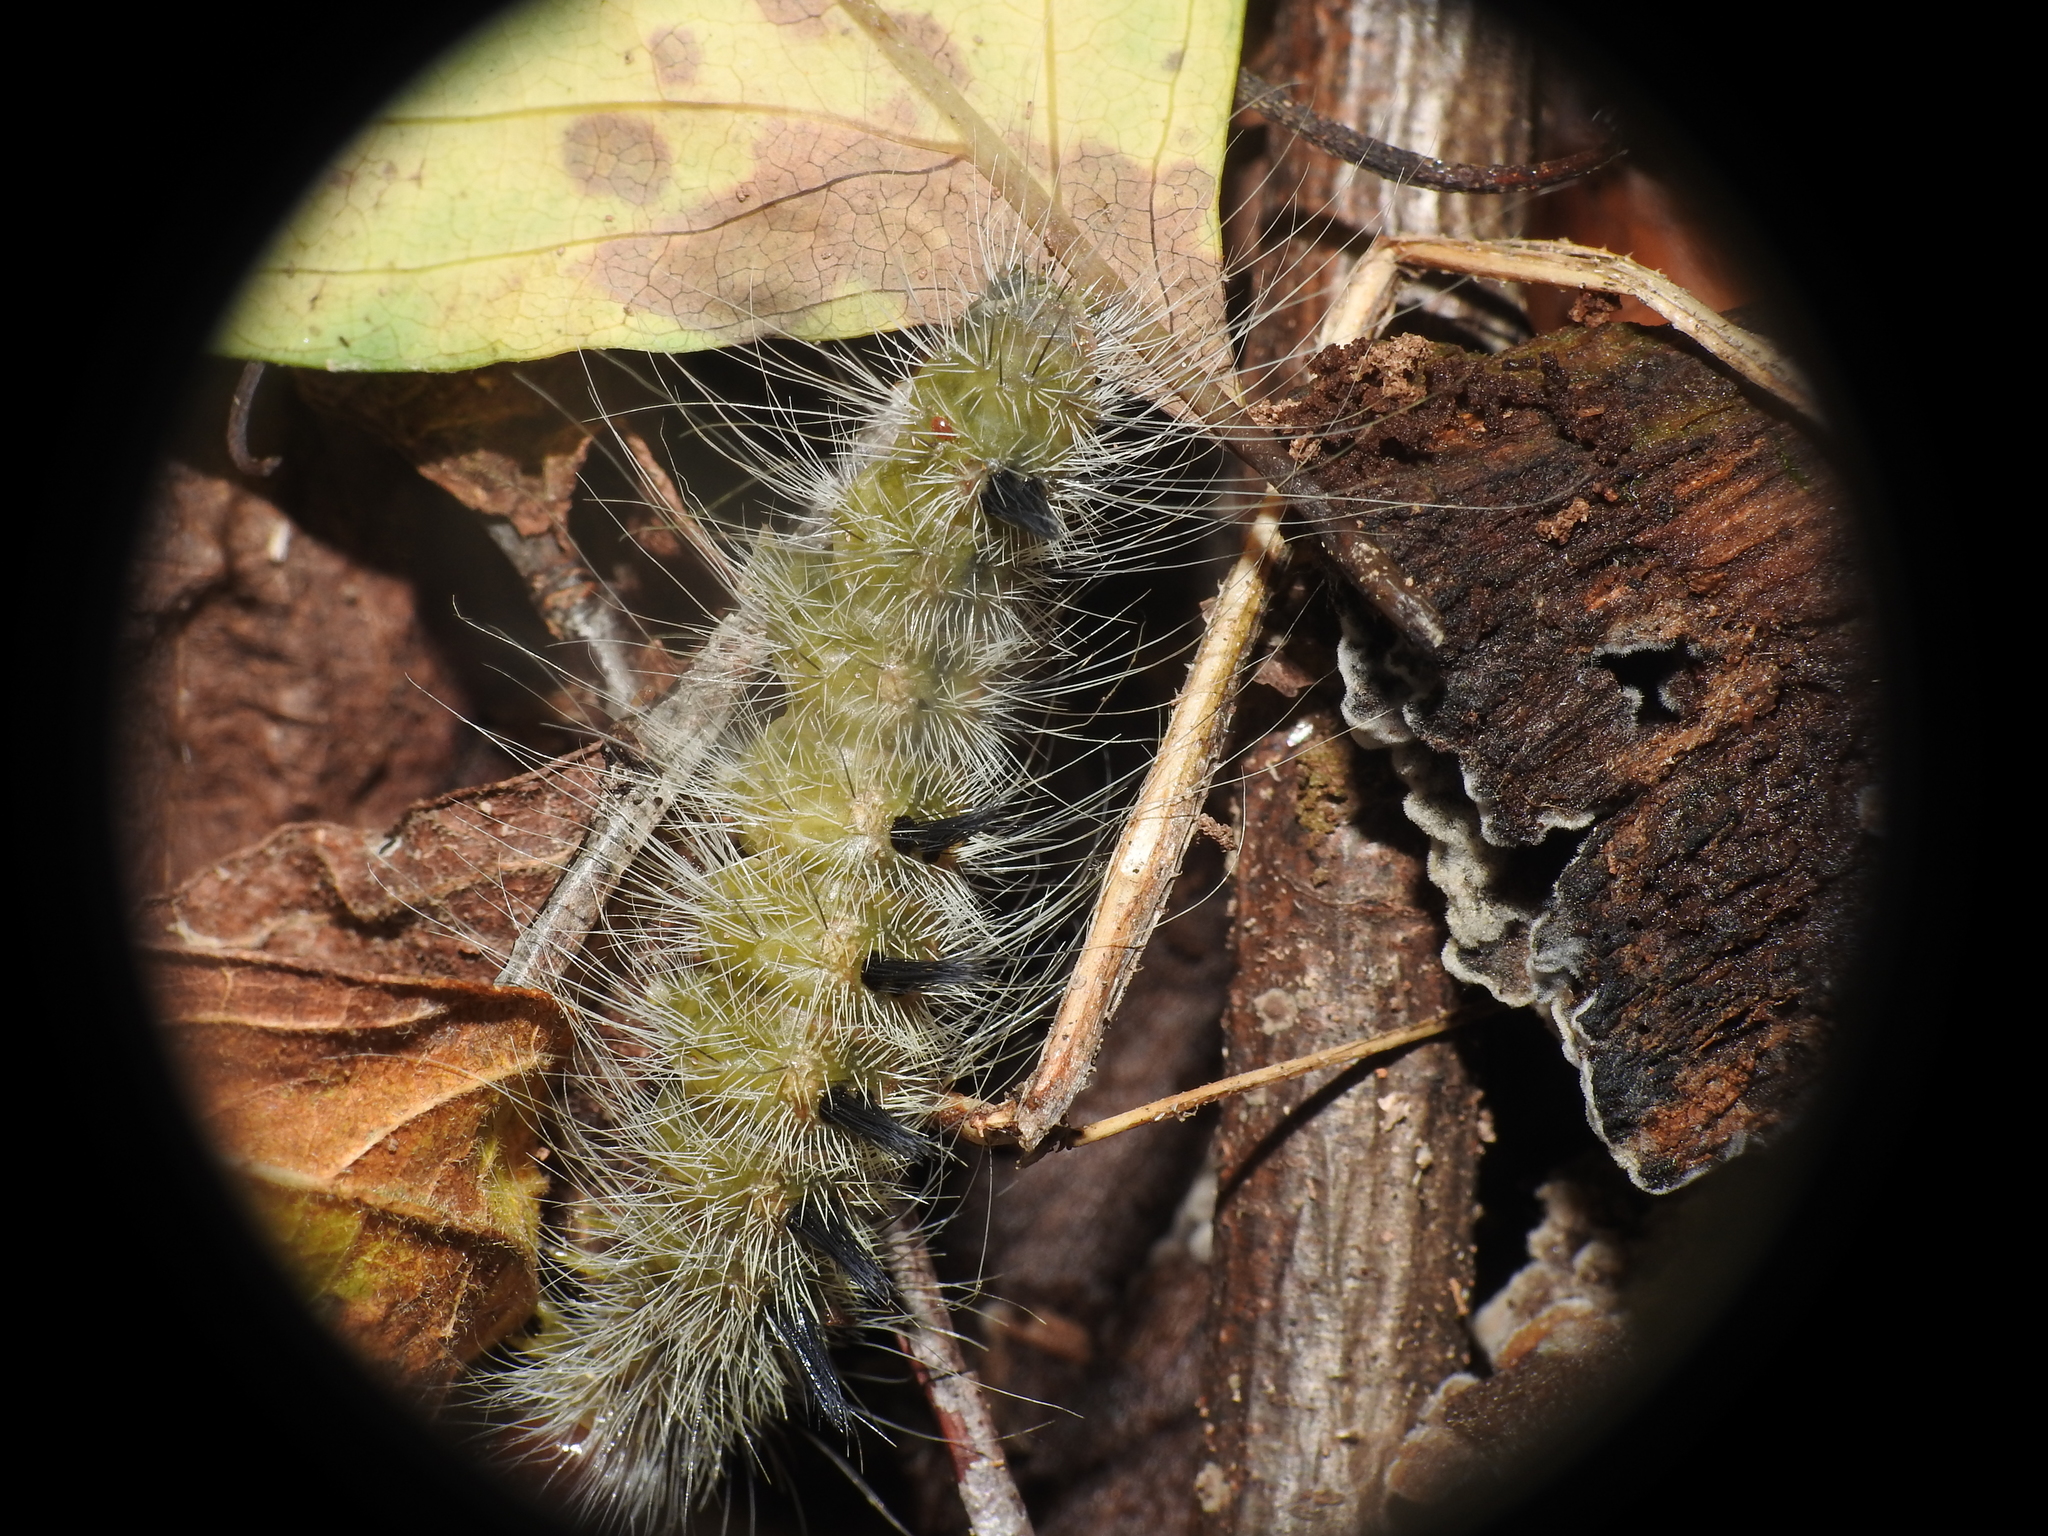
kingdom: Animalia
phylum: Arthropoda
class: Insecta
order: Lepidoptera
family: Noctuidae
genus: Acronicta
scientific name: Acronicta rubricoma
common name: Hackberry dagger
